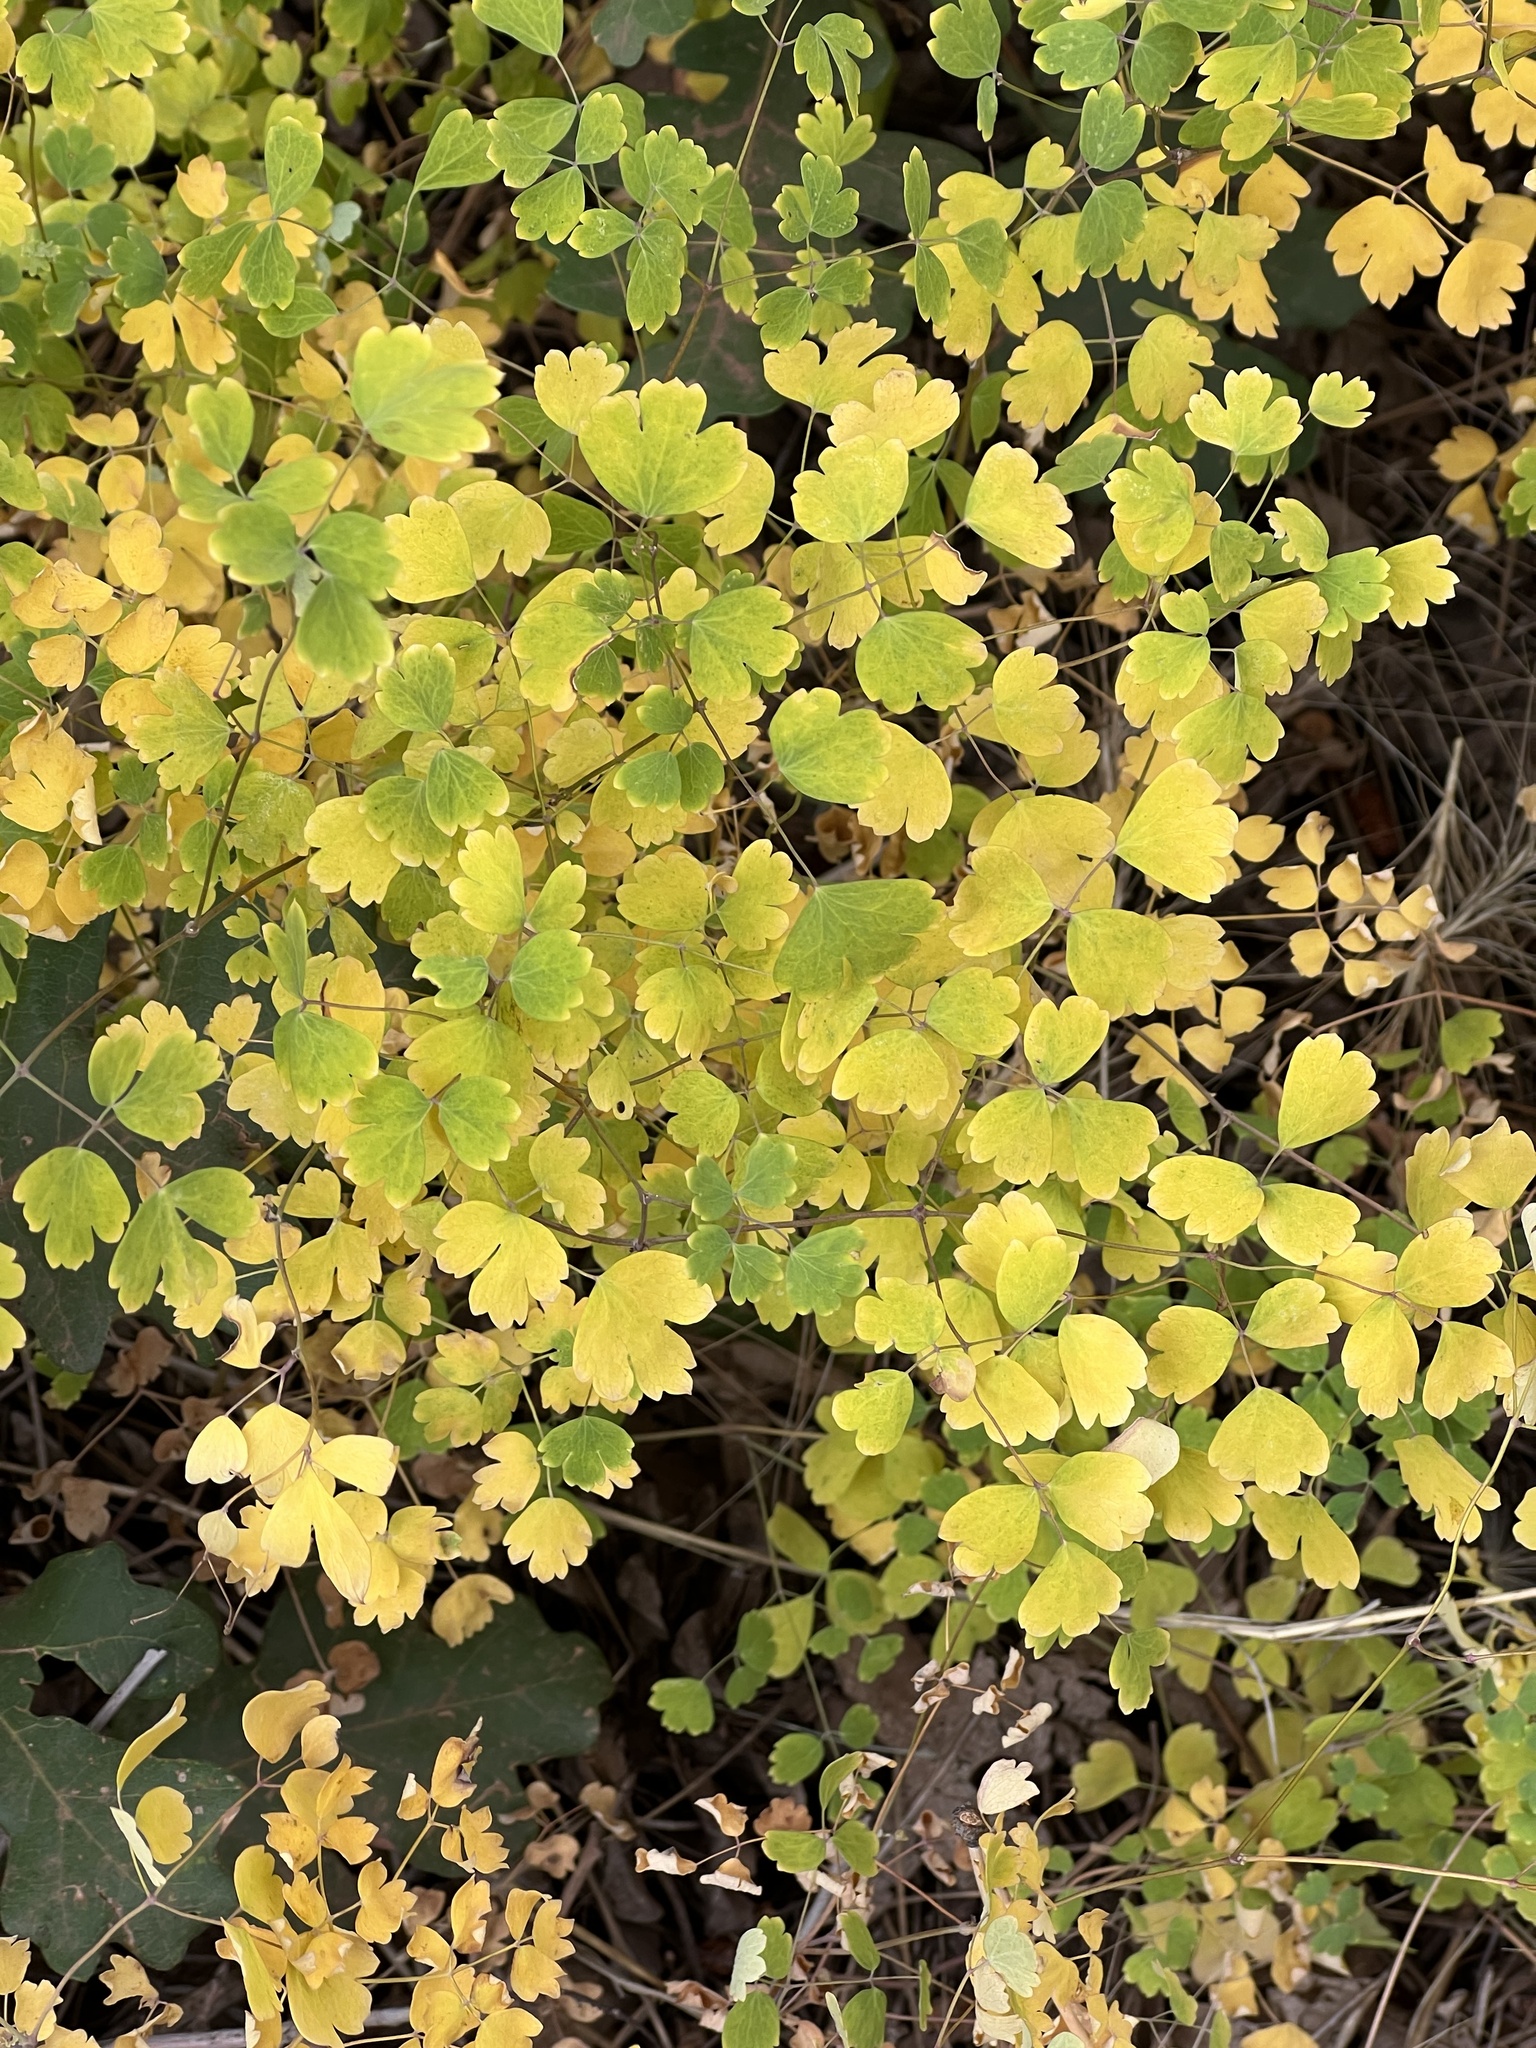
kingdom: Plantae
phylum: Tracheophyta
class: Magnoliopsida
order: Ranunculales
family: Ranunculaceae
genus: Thalictrum
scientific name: Thalictrum fendleri
